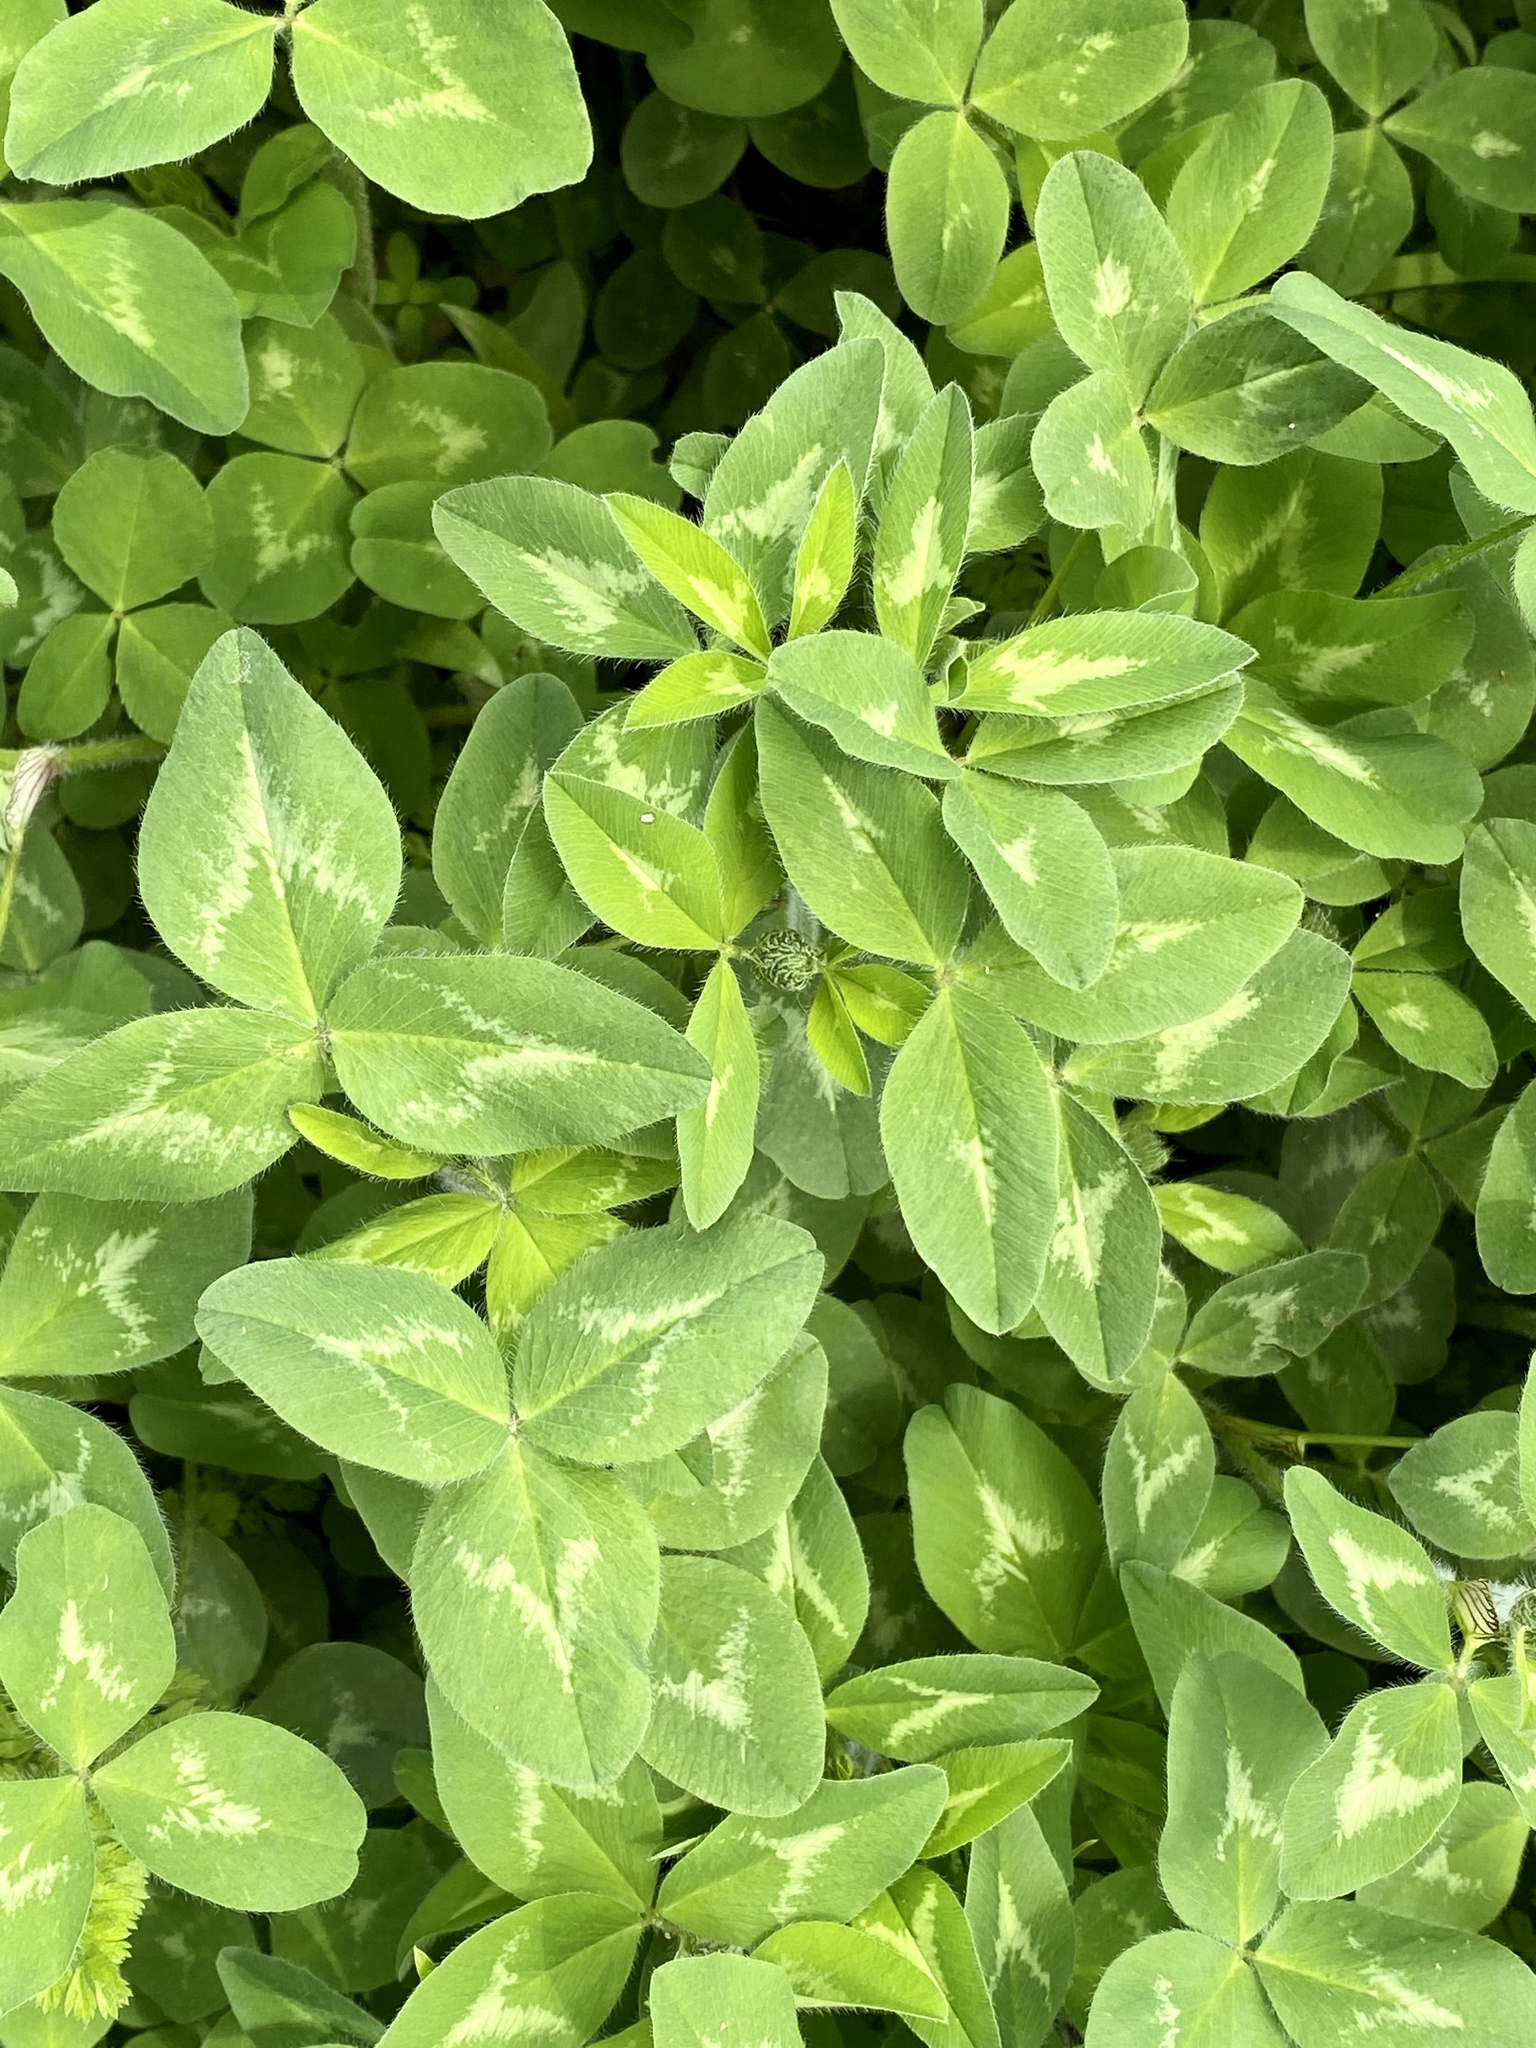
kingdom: Plantae
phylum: Tracheophyta
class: Magnoliopsida
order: Fabales
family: Fabaceae
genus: Trifolium
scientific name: Trifolium pratense
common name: Red clover
